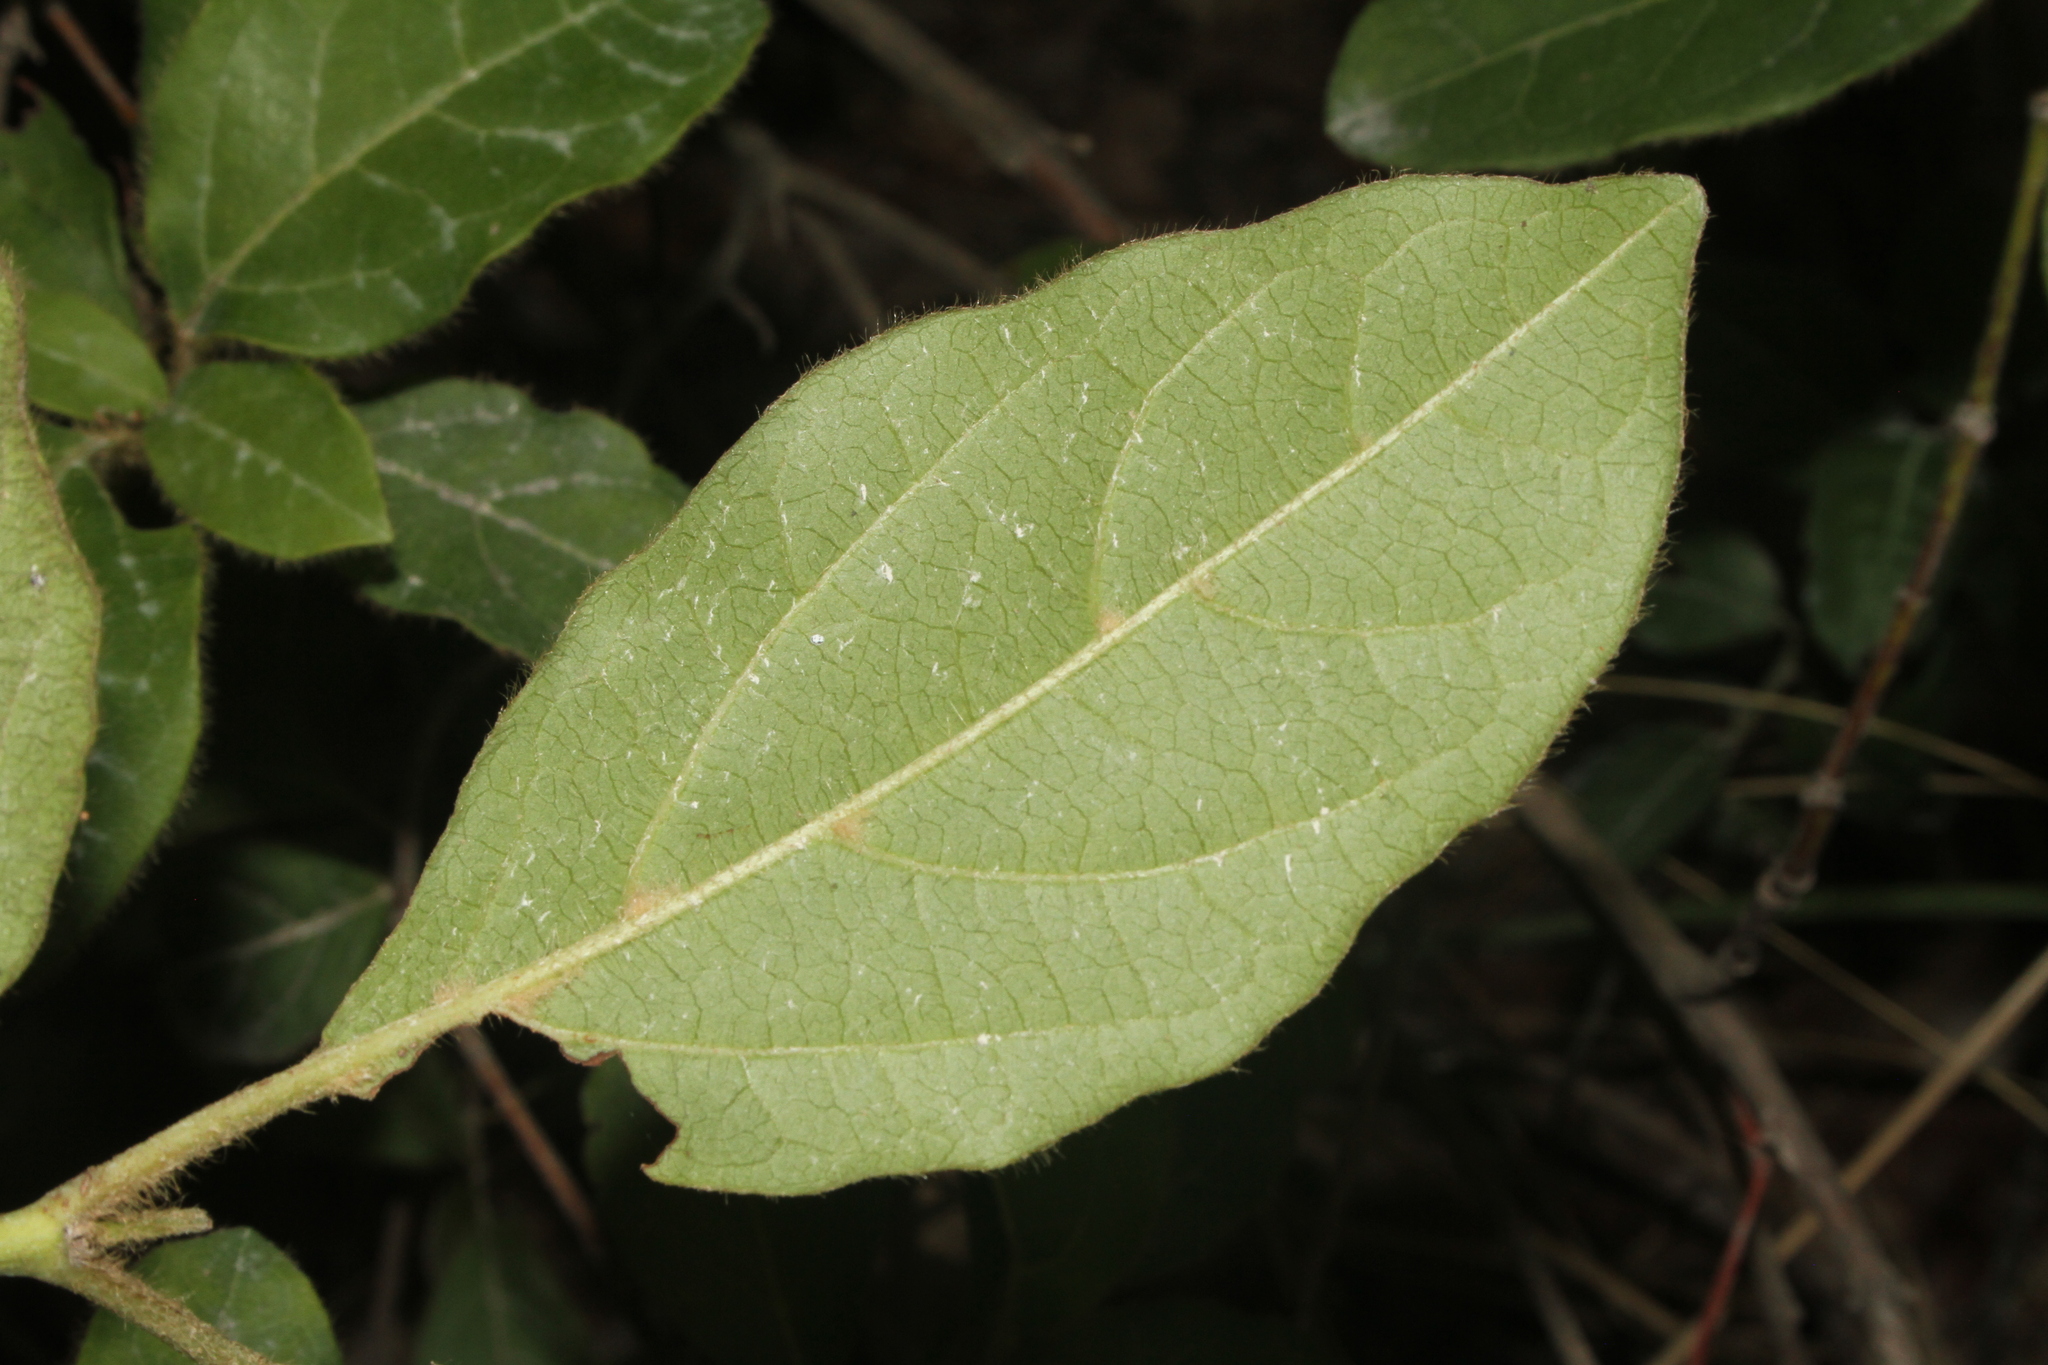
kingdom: Plantae
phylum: Tracheophyta
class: Magnoliopsida
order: Dipsacales
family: Viburnaceae
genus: Viburnum
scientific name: Viburnum tinus
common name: Laurustinus
